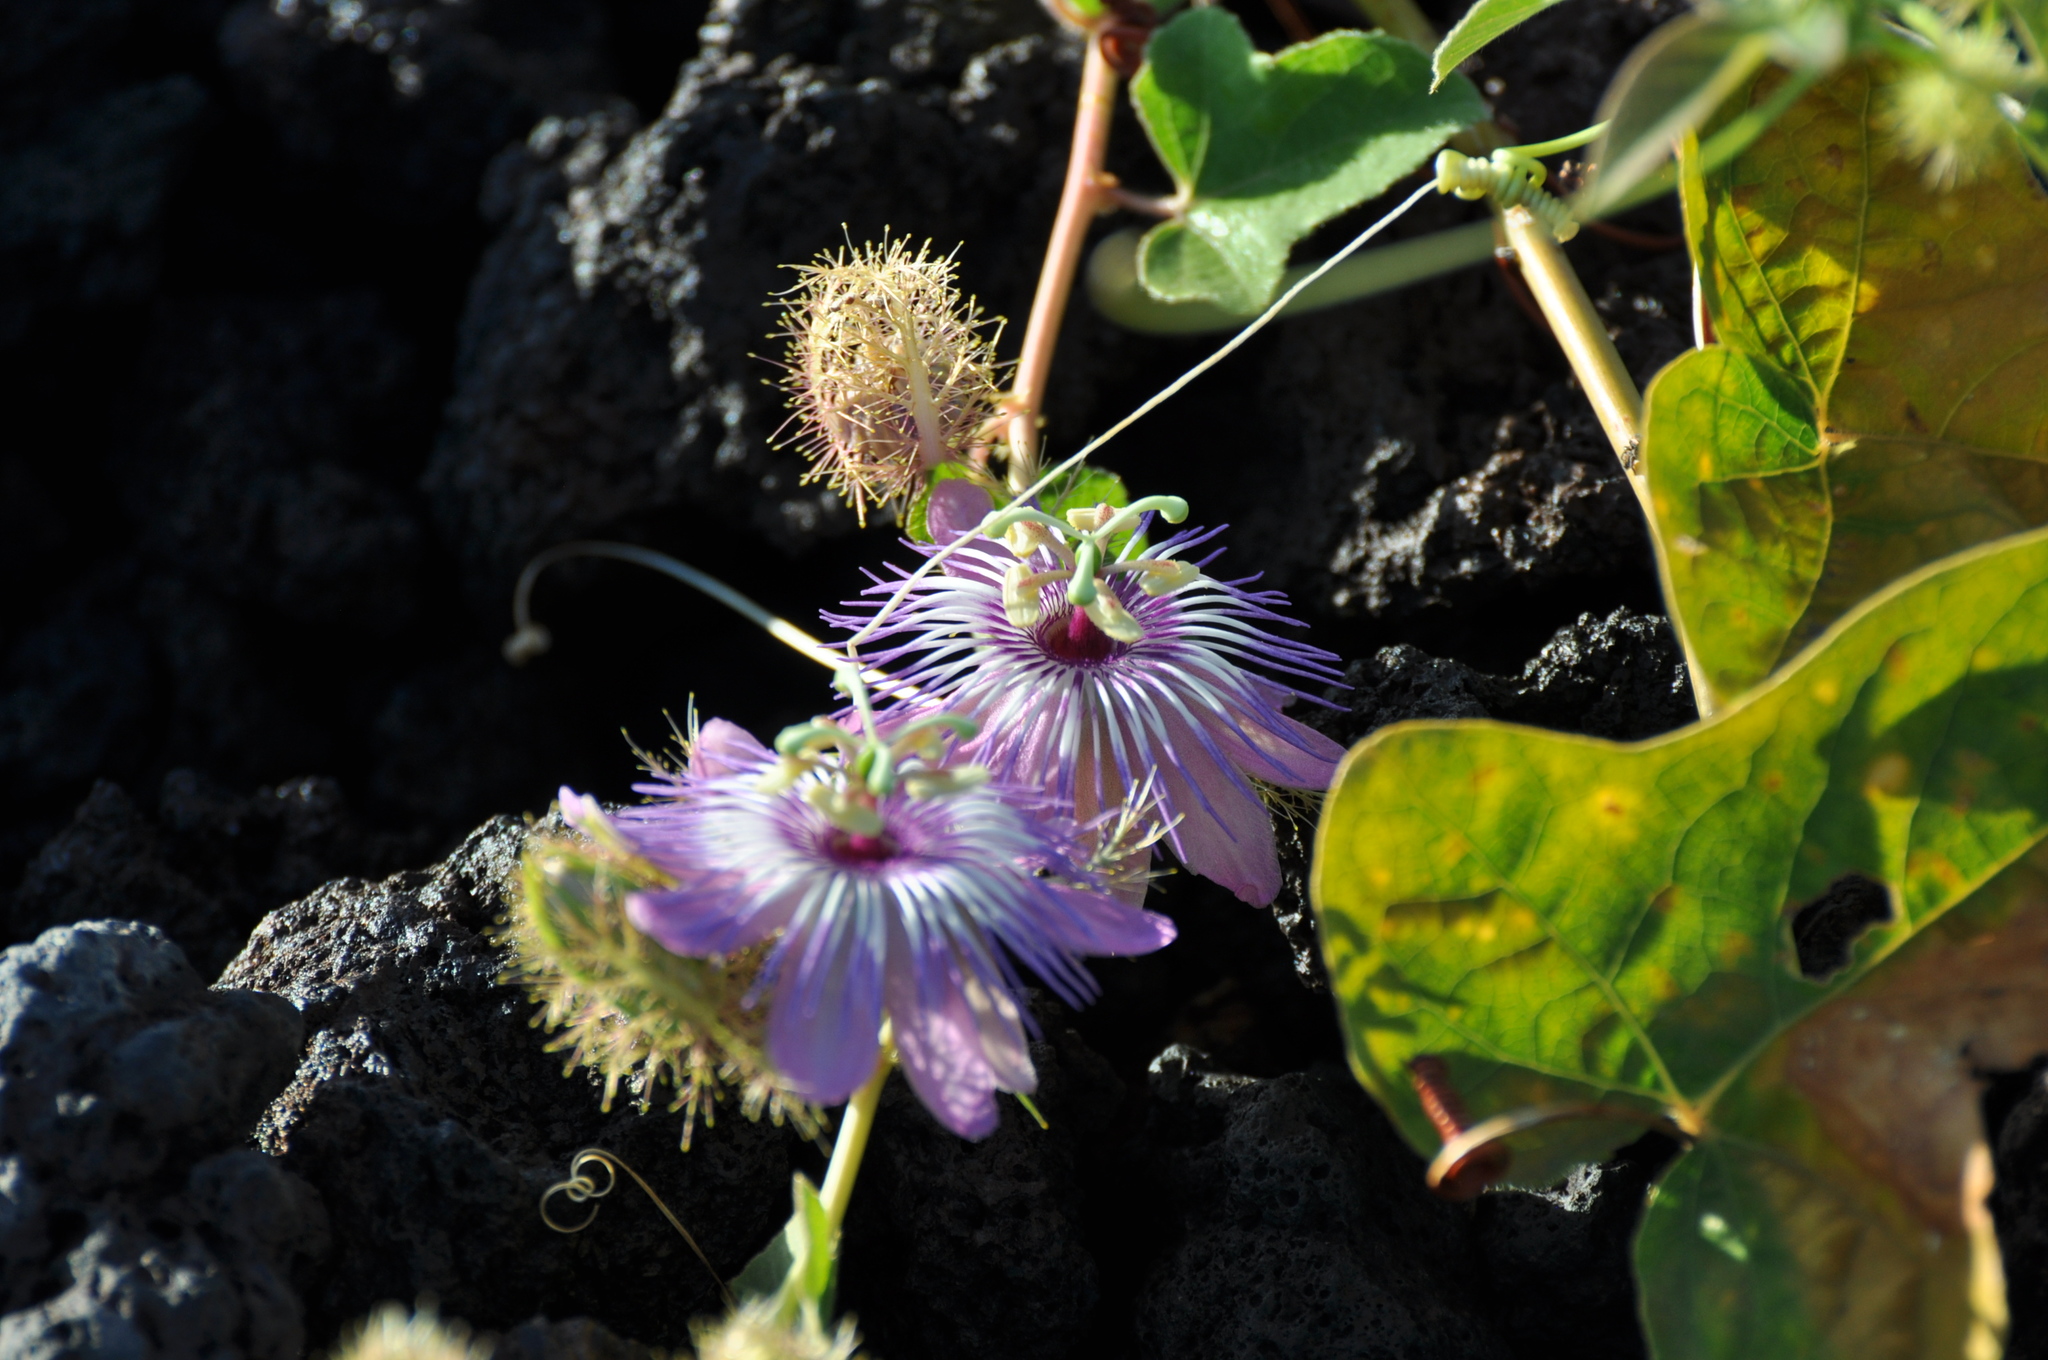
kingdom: Plantae
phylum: Tracheophyta
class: Magnoliopsida
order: Malpighiales
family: Passifloraceae
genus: Passiflora
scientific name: Passiflora ciliata
